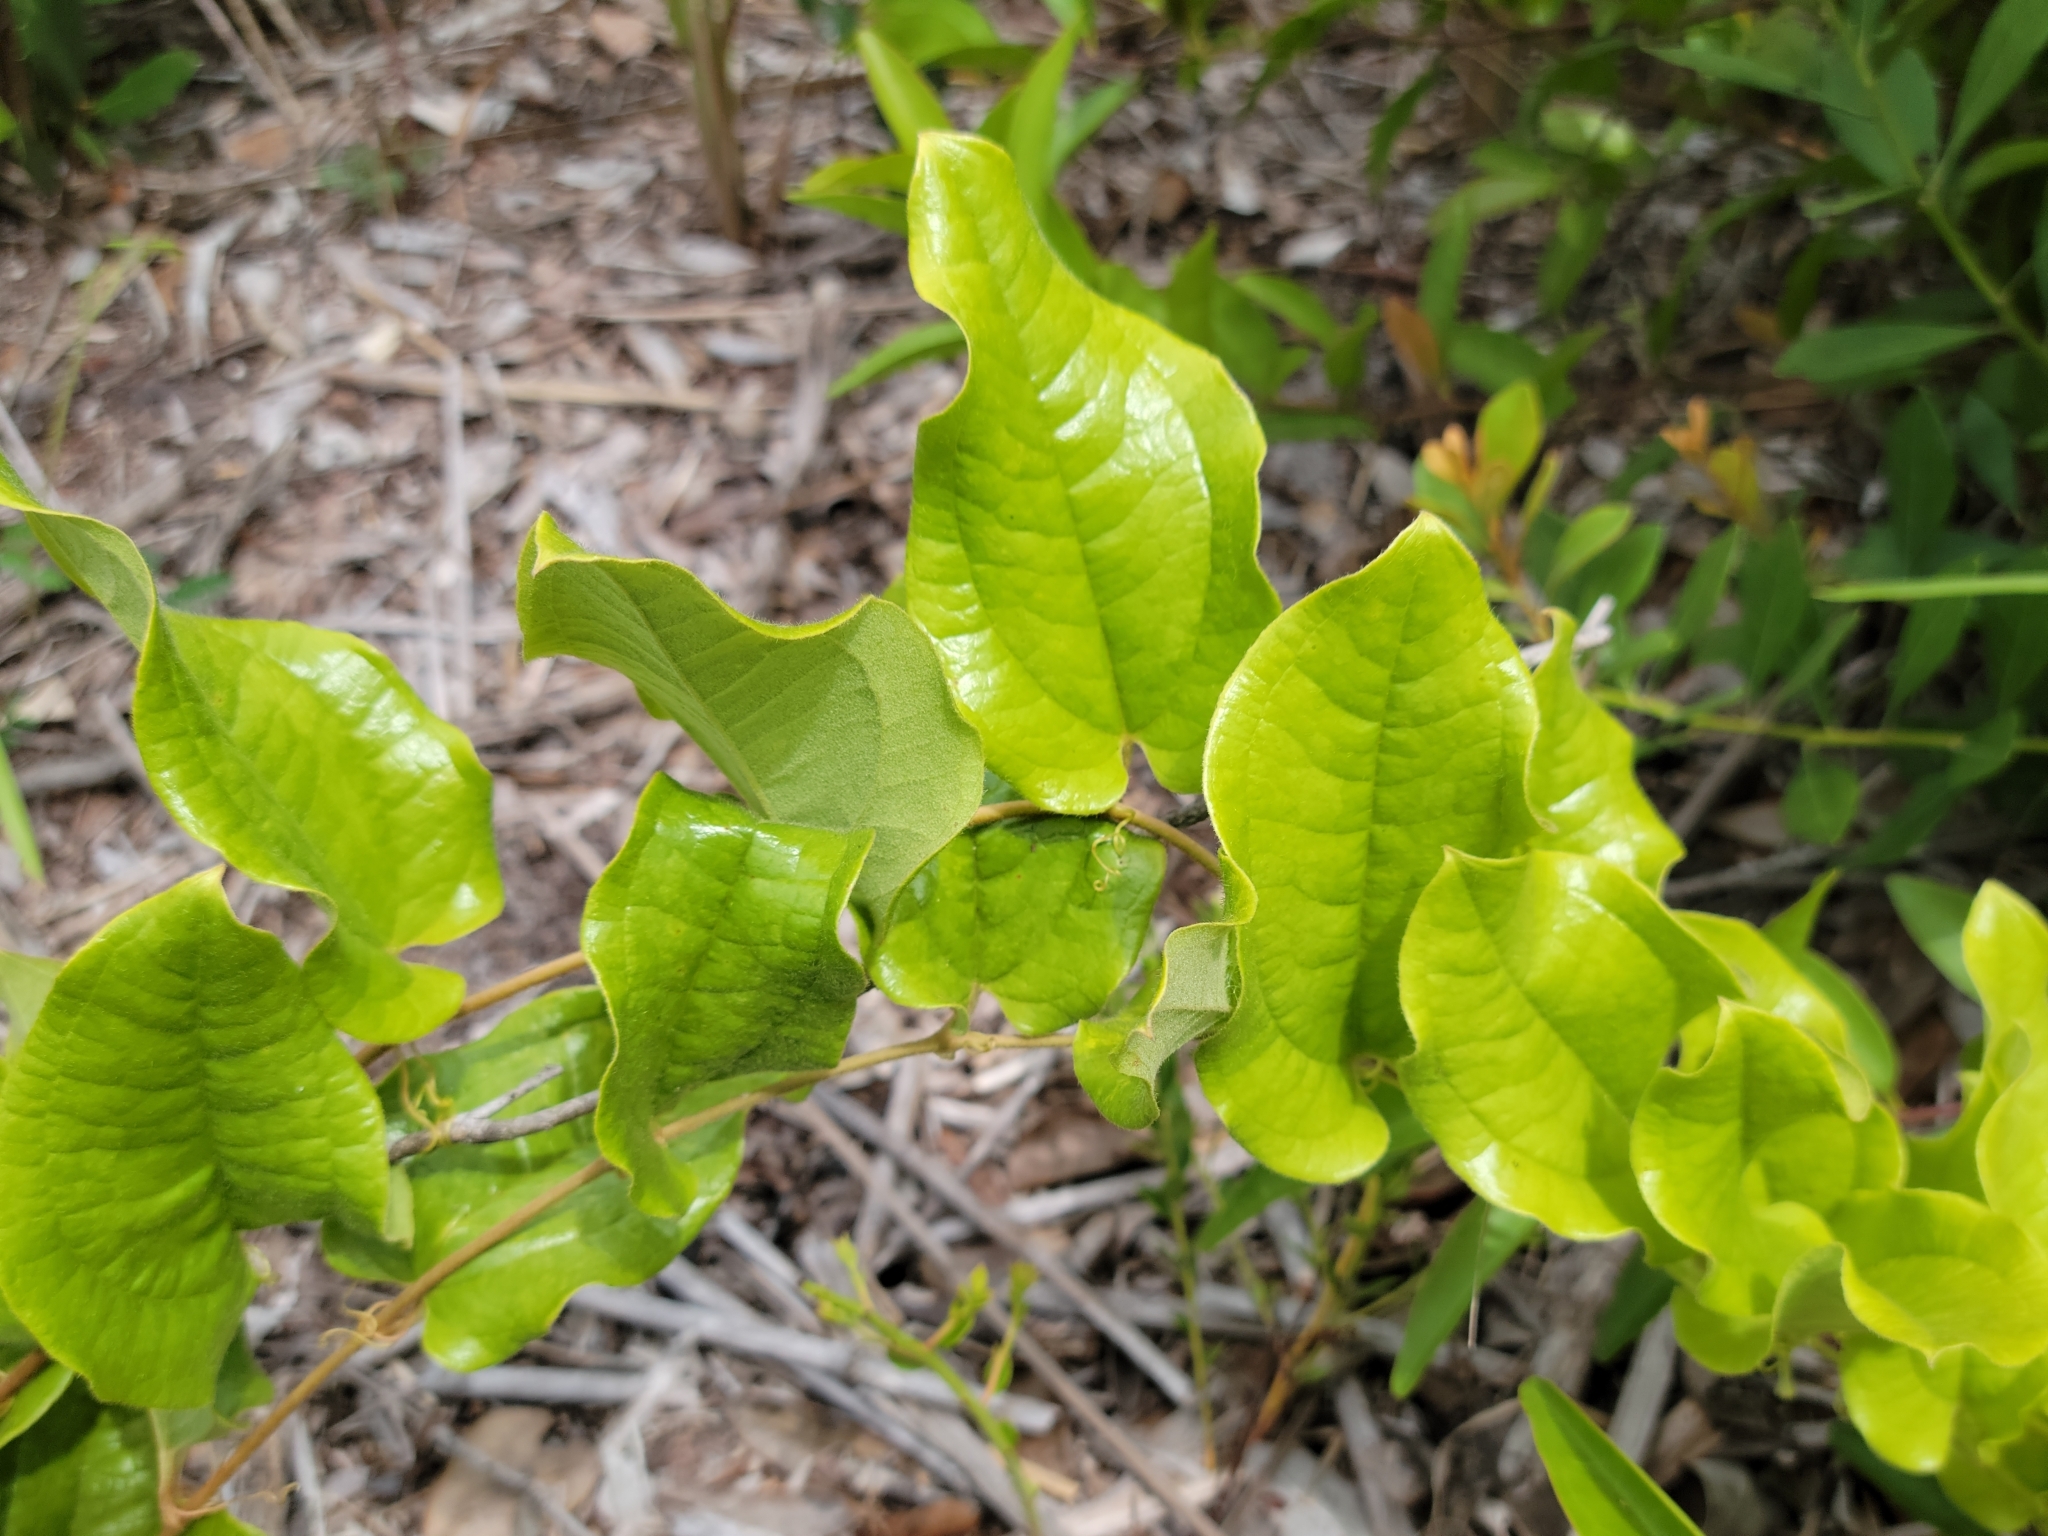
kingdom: Plantae
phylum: Tracheophyta
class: Liliopsida
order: Liliales
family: Smilacaceae
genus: Smilax
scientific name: Smilax pumila
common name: Sarsaparilla-vine
